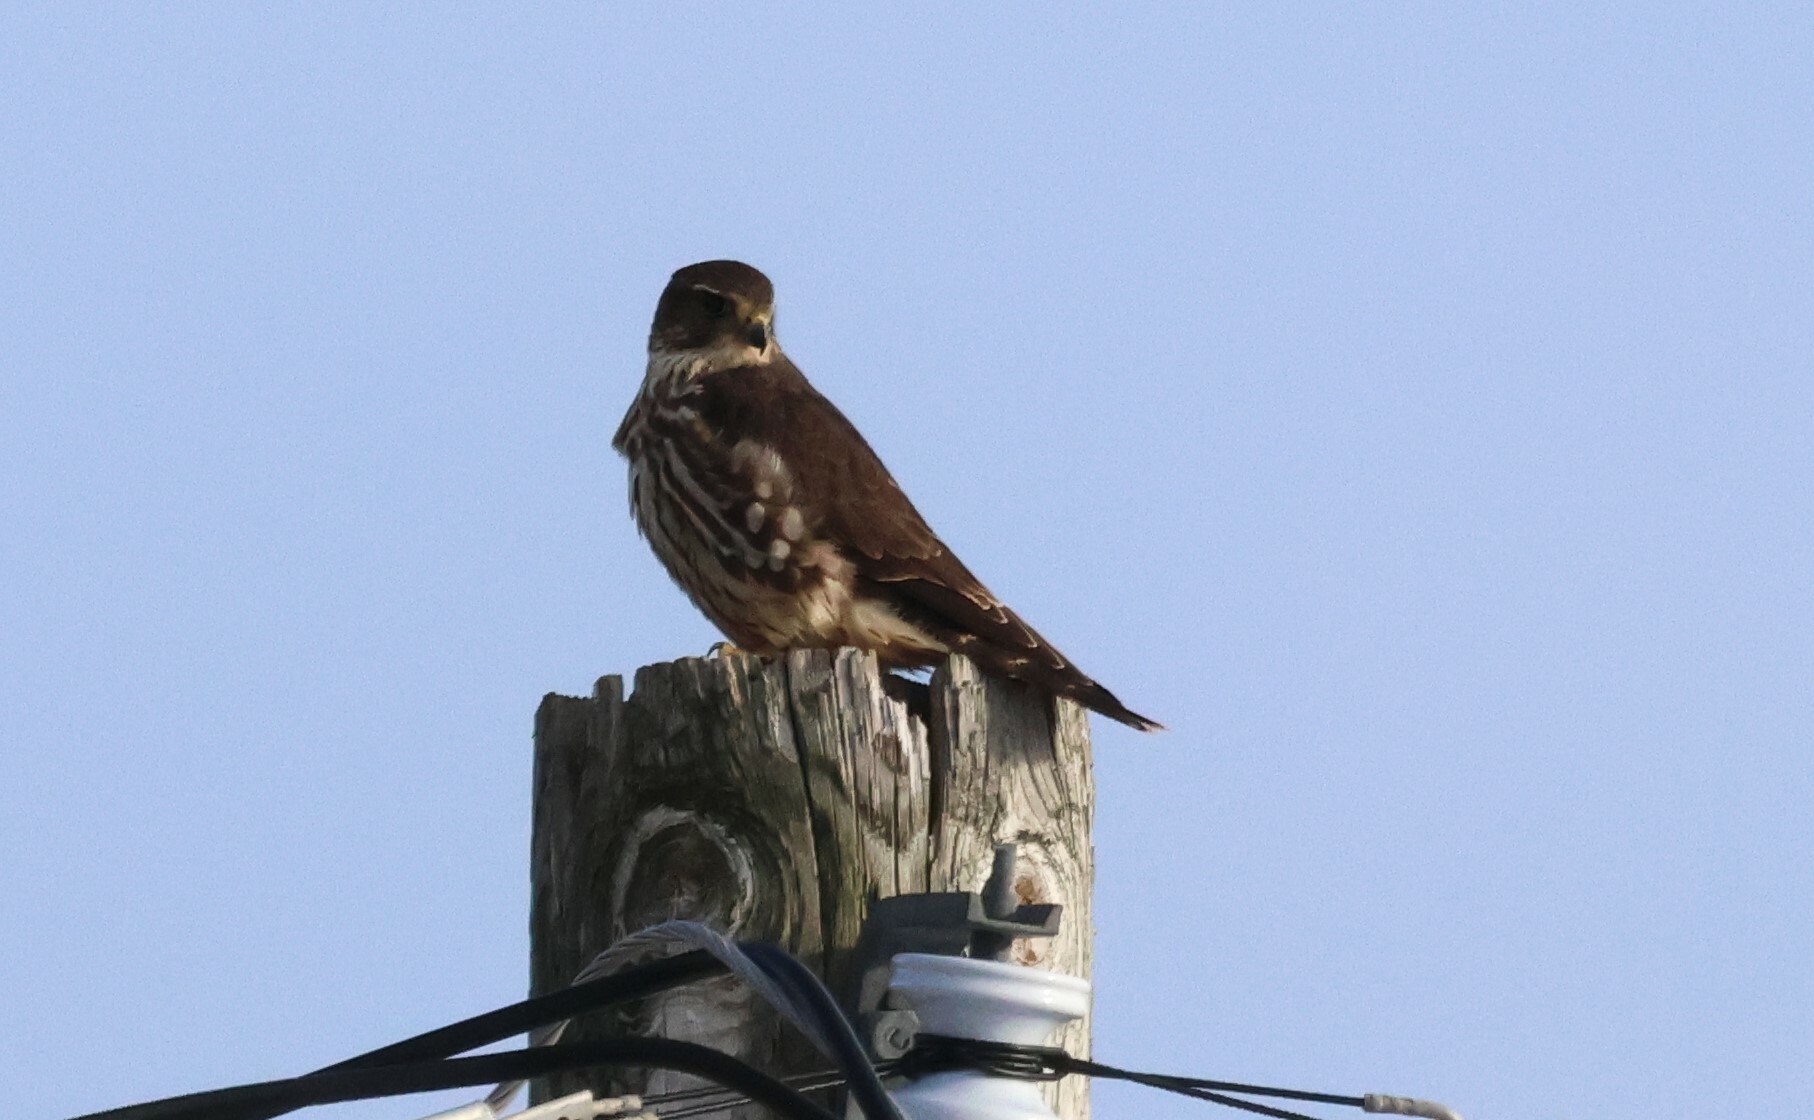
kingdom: Animalia
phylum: Chordata
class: Aves
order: Falconiformes
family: Falconidae
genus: Falco
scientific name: Falco columbarius
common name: Merlin
